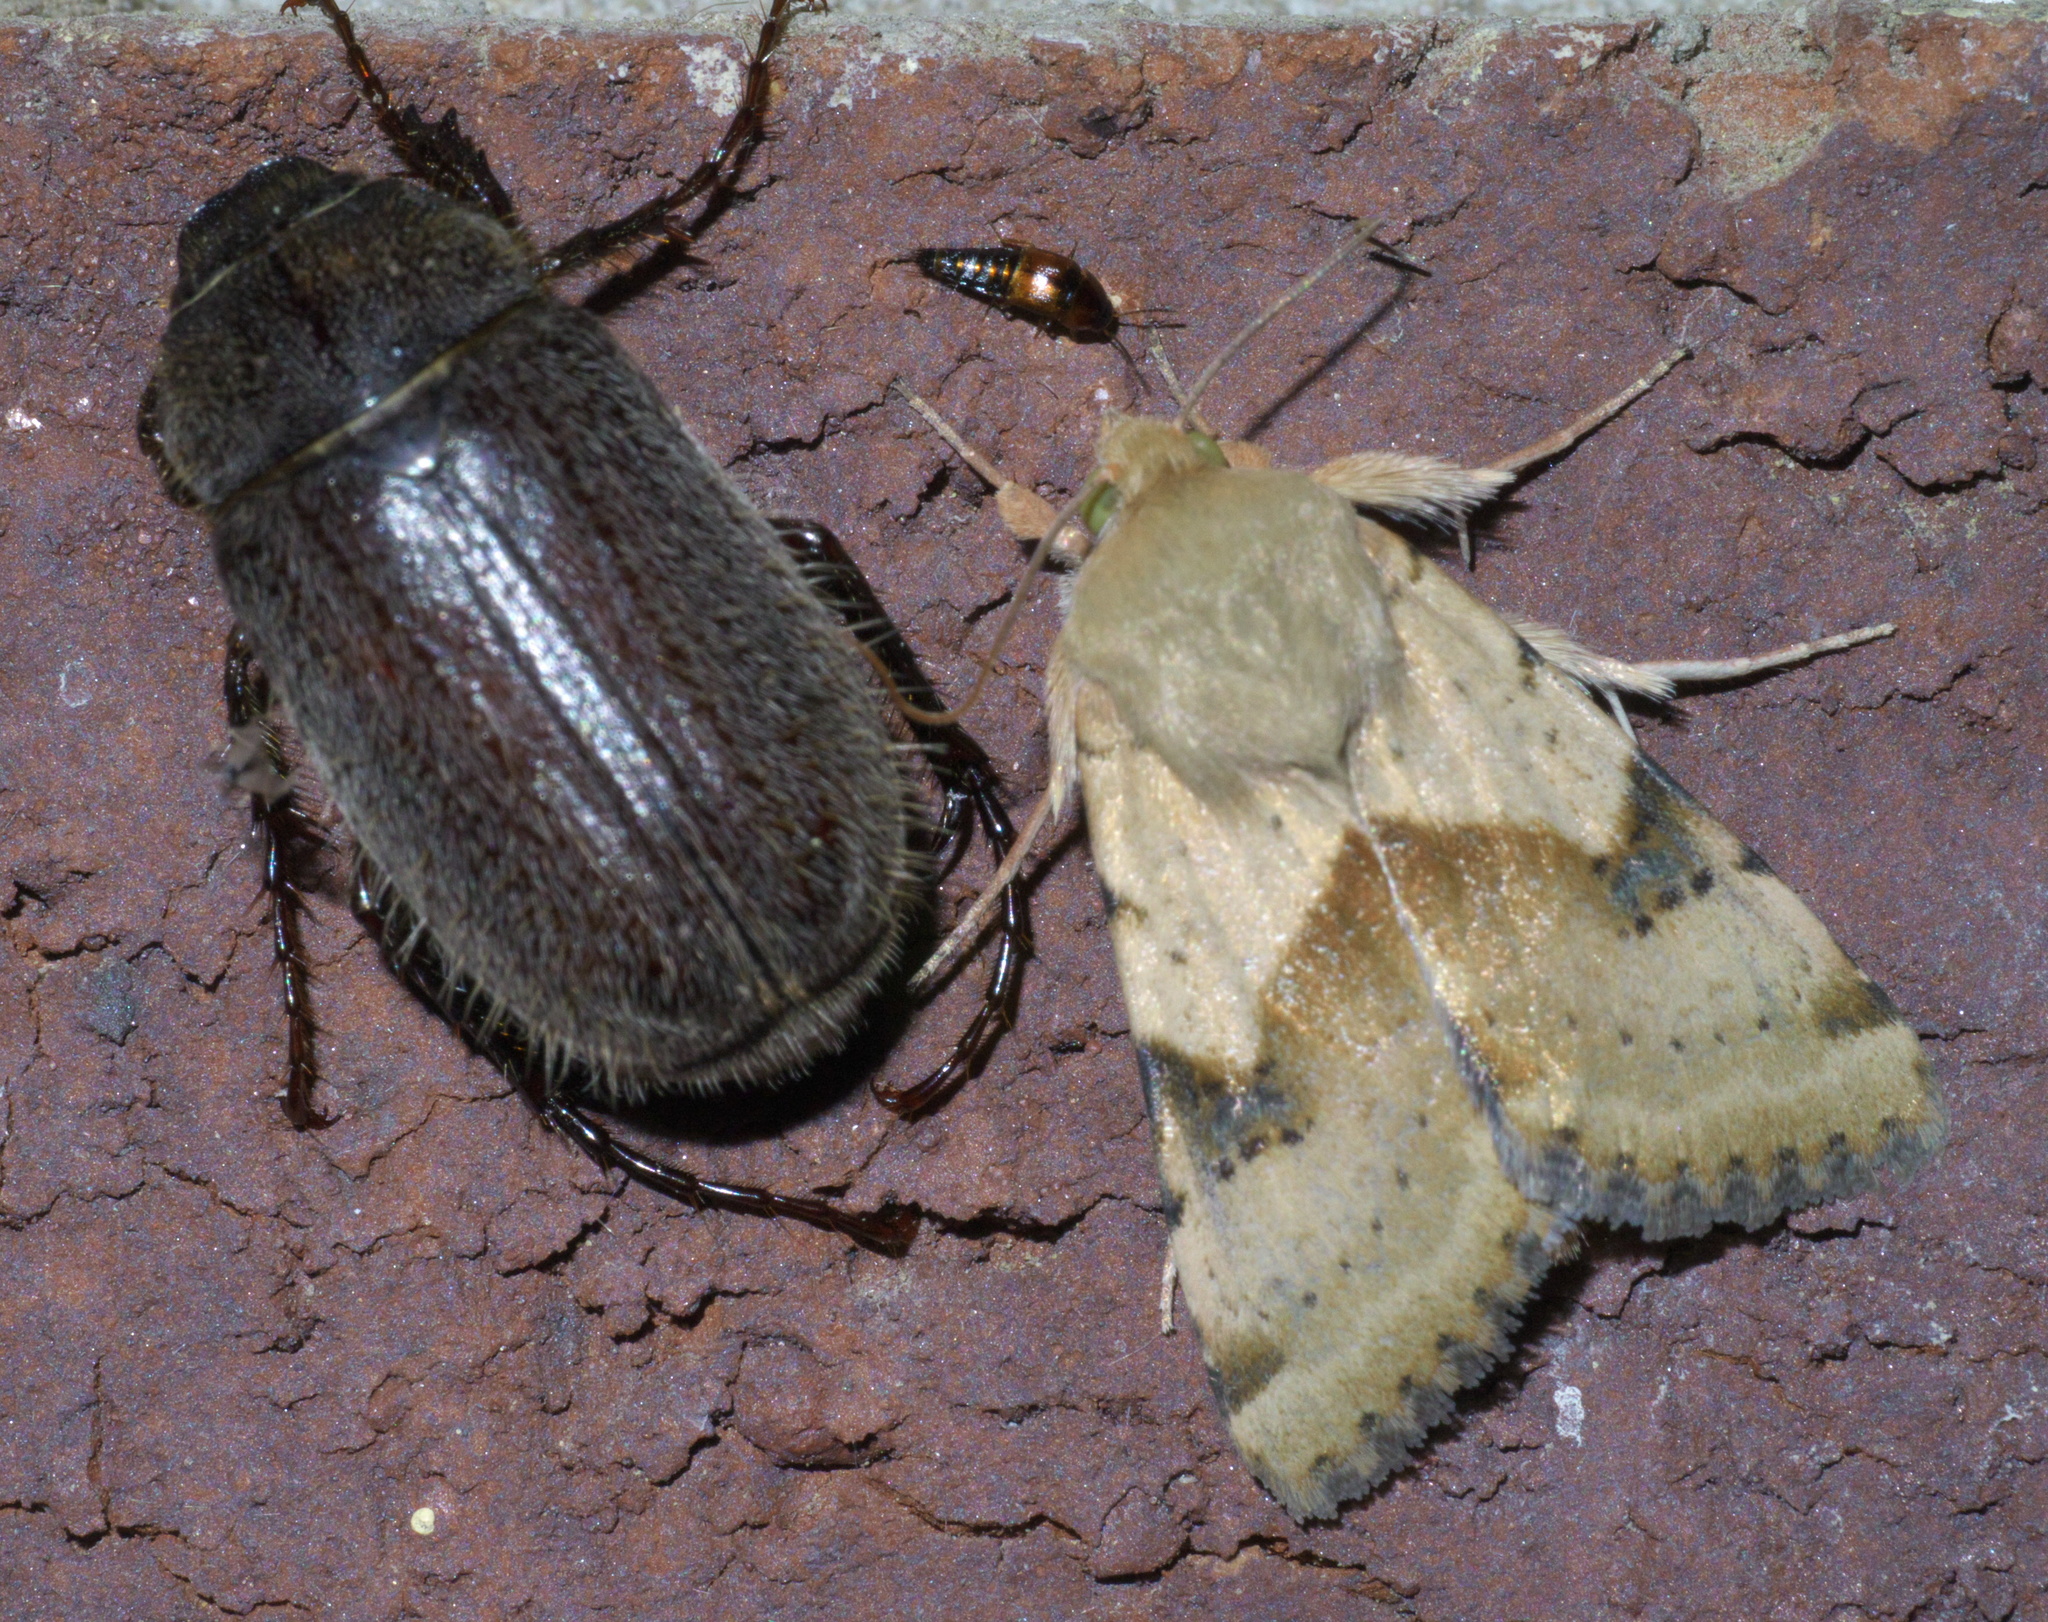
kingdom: Animalia
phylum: Arthropoda
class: Insecta
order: Lepidoptera
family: Noctuidae
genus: Heliothis
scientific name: Heliothis phloxiphaga
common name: Darker spotted straw moth
